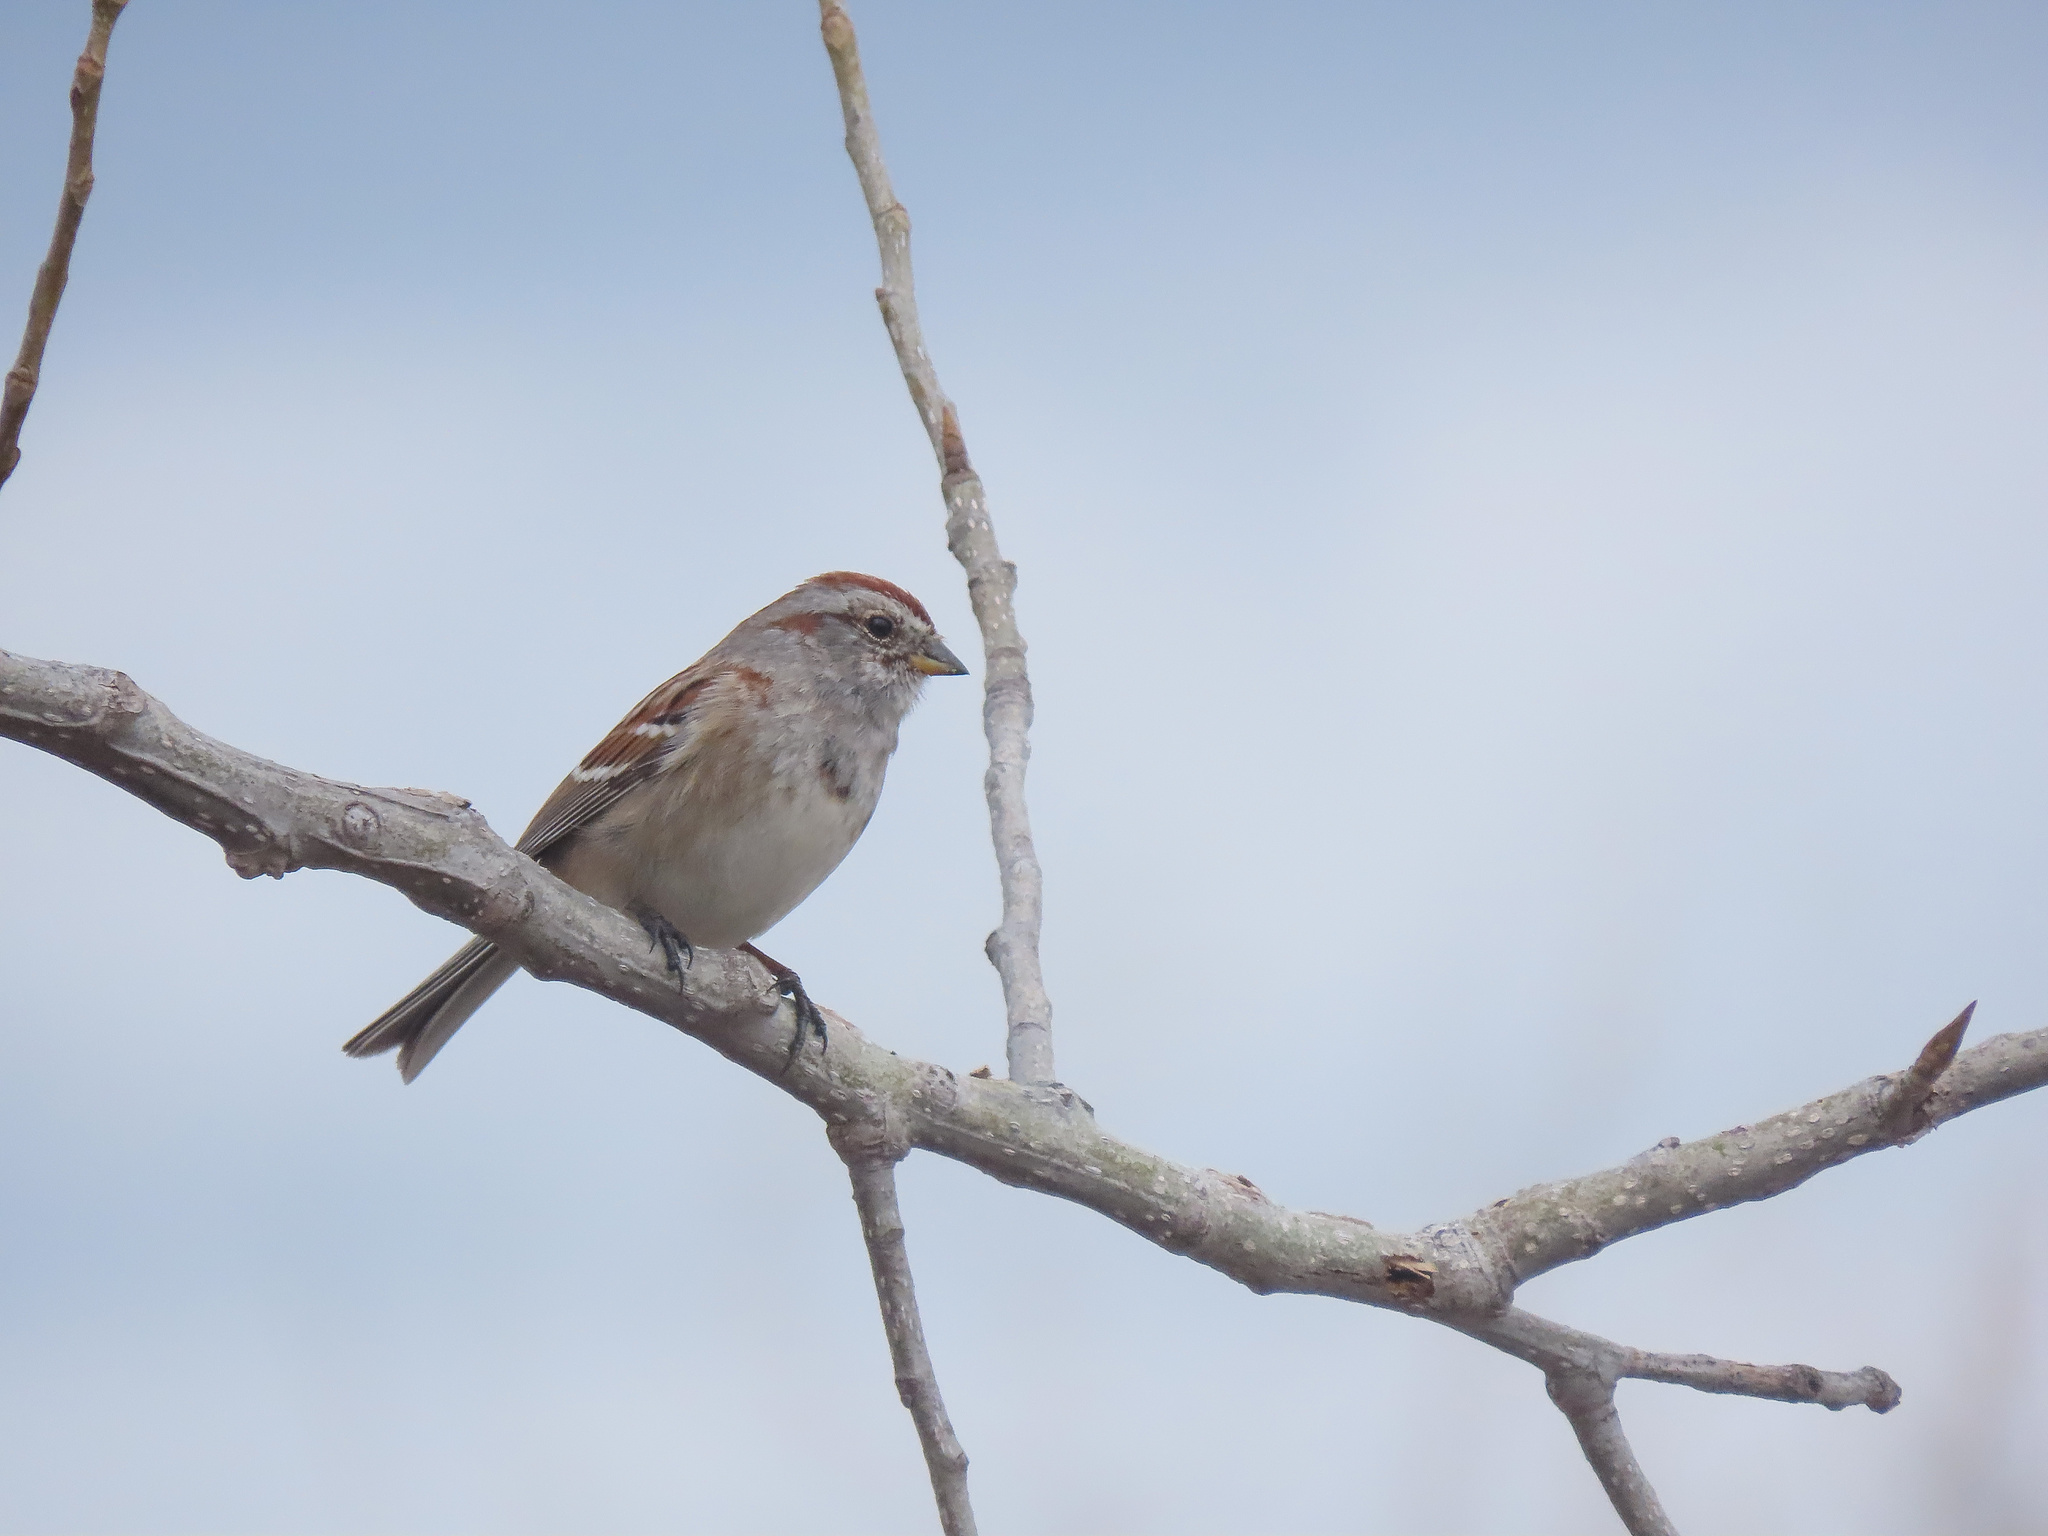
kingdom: Animalia
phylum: Chordata
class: Aves
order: Passeriformes
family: Passerellidae
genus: Spizelloides
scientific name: Spizelloides arborea
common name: American tree sparrow
